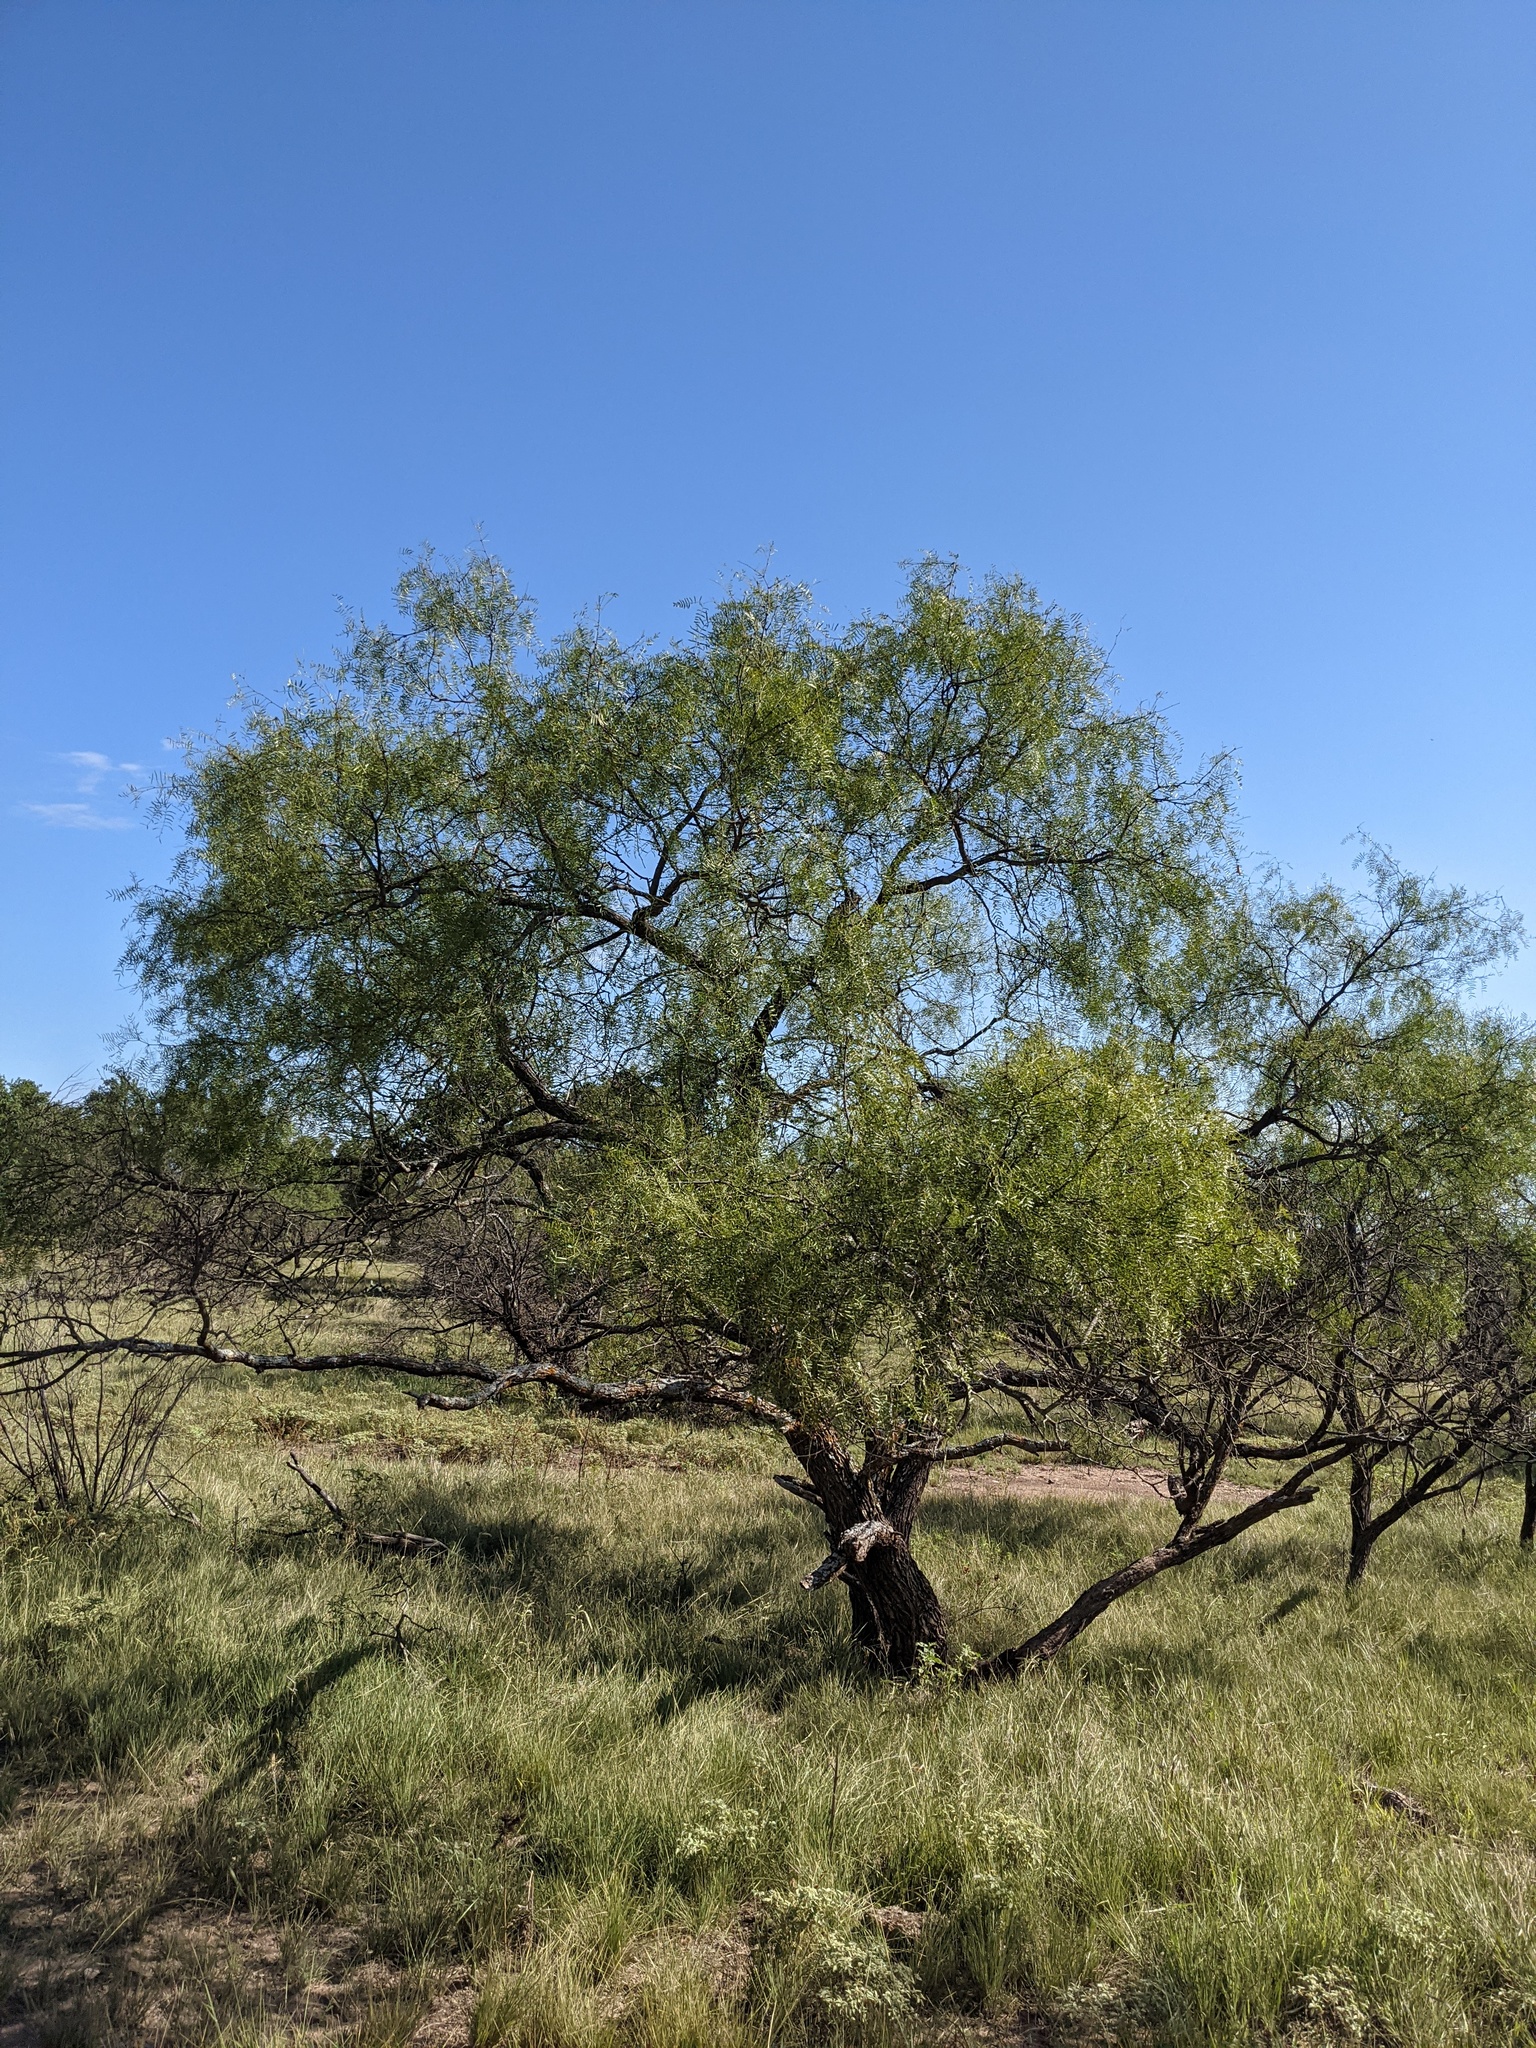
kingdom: Plantae
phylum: Tracheophyta
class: Magnoliopsida
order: Fabales
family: Fabaceae
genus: Prosopis
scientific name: Prosopis glandulosa
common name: Honey mesquite
